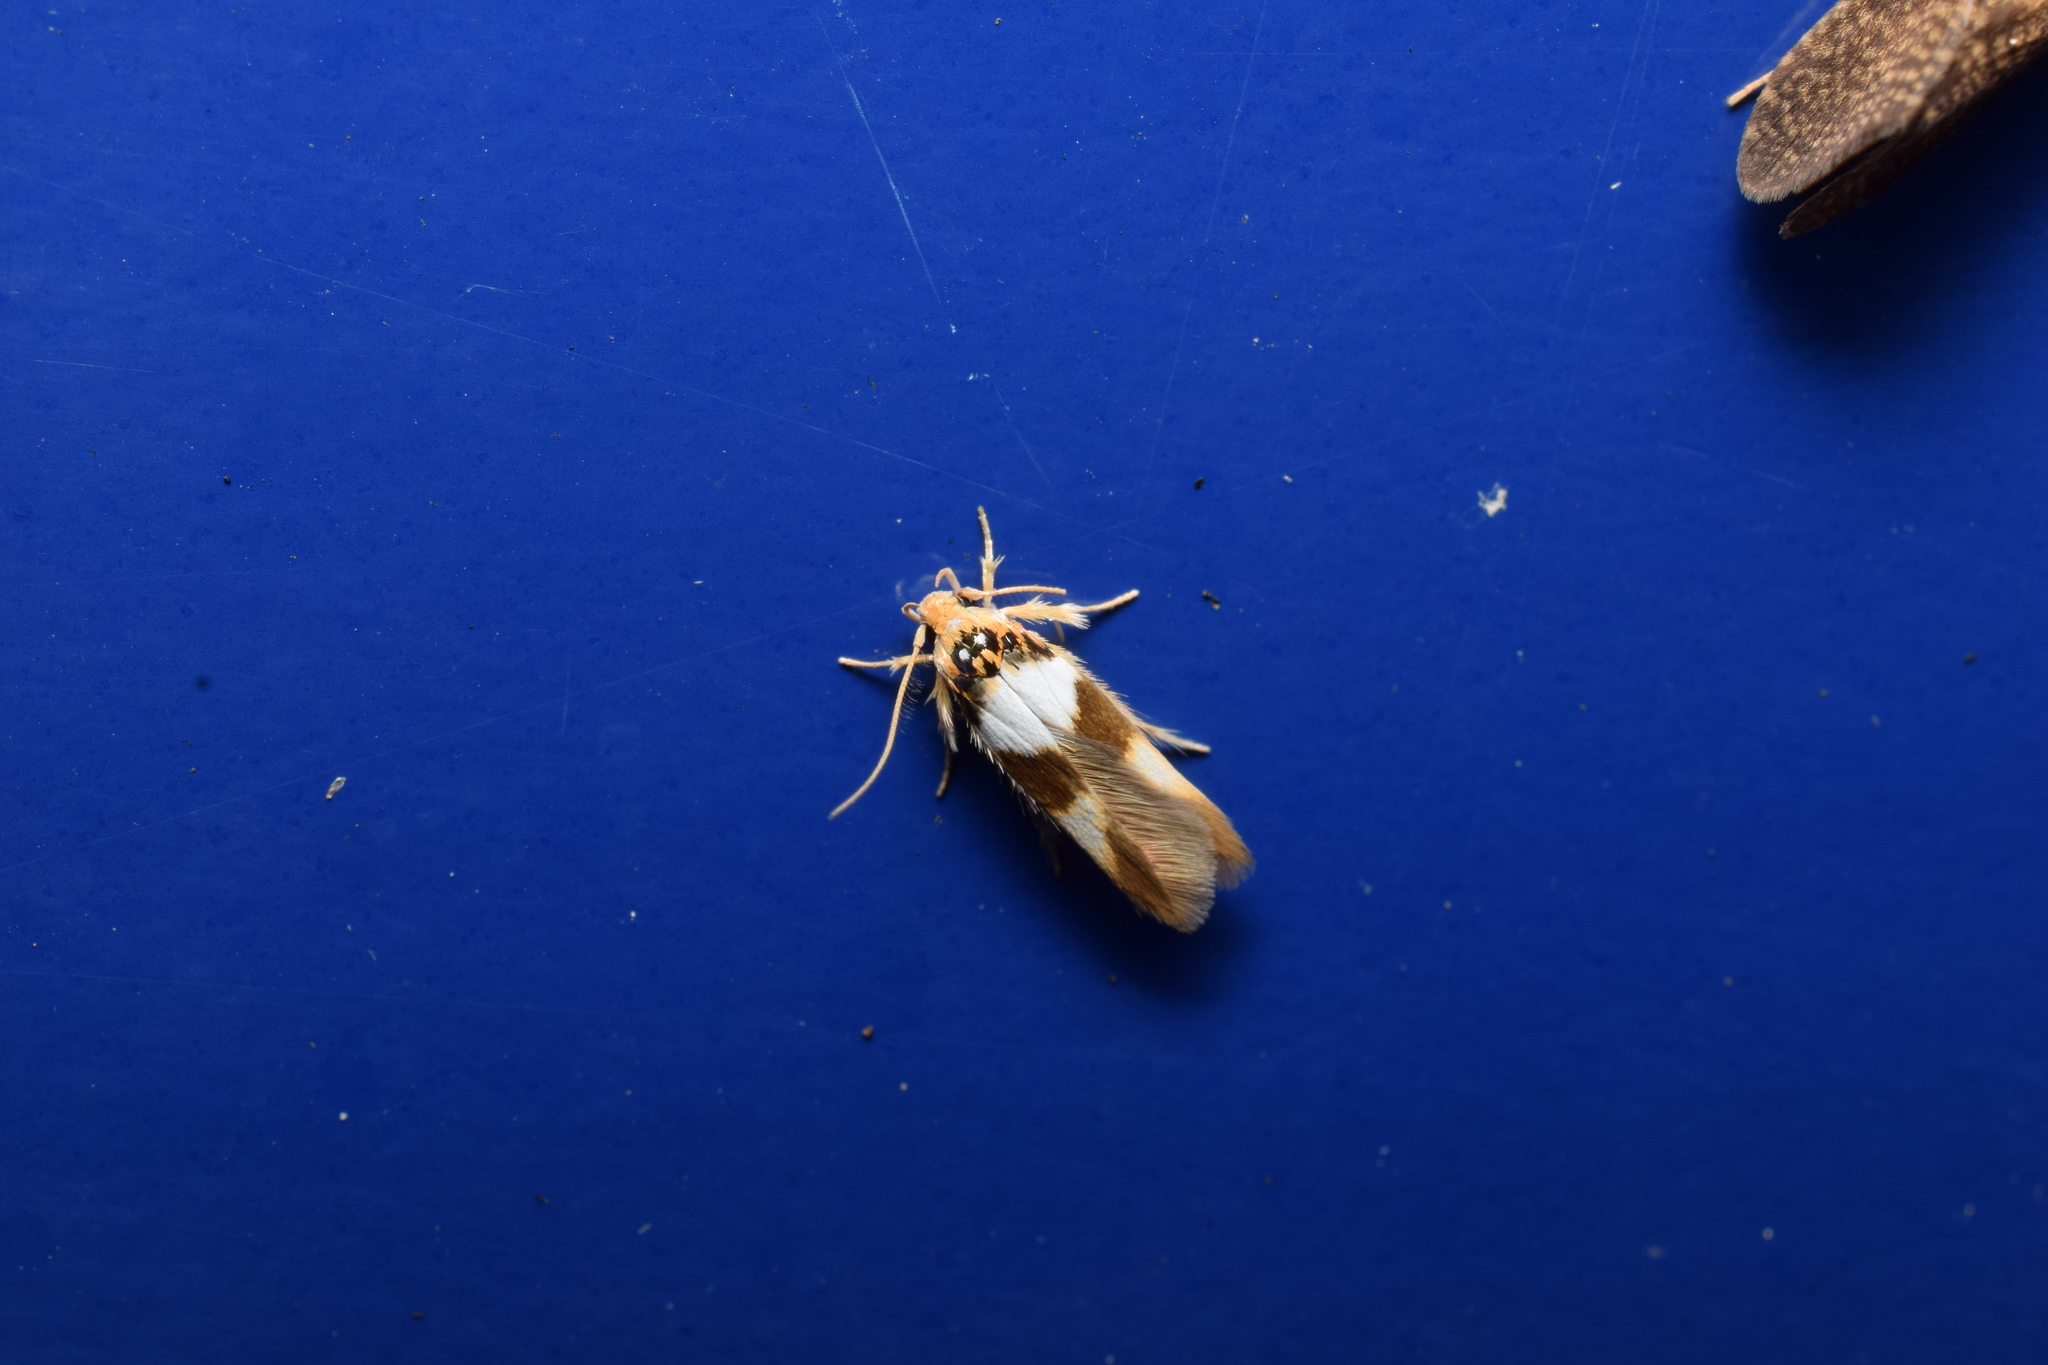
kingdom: Animalia
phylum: Arthropoda
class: Insecta
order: Lepidoptera
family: Stathmopodidae
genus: Stathmopoda
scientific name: Stathmopoda opticaspis
